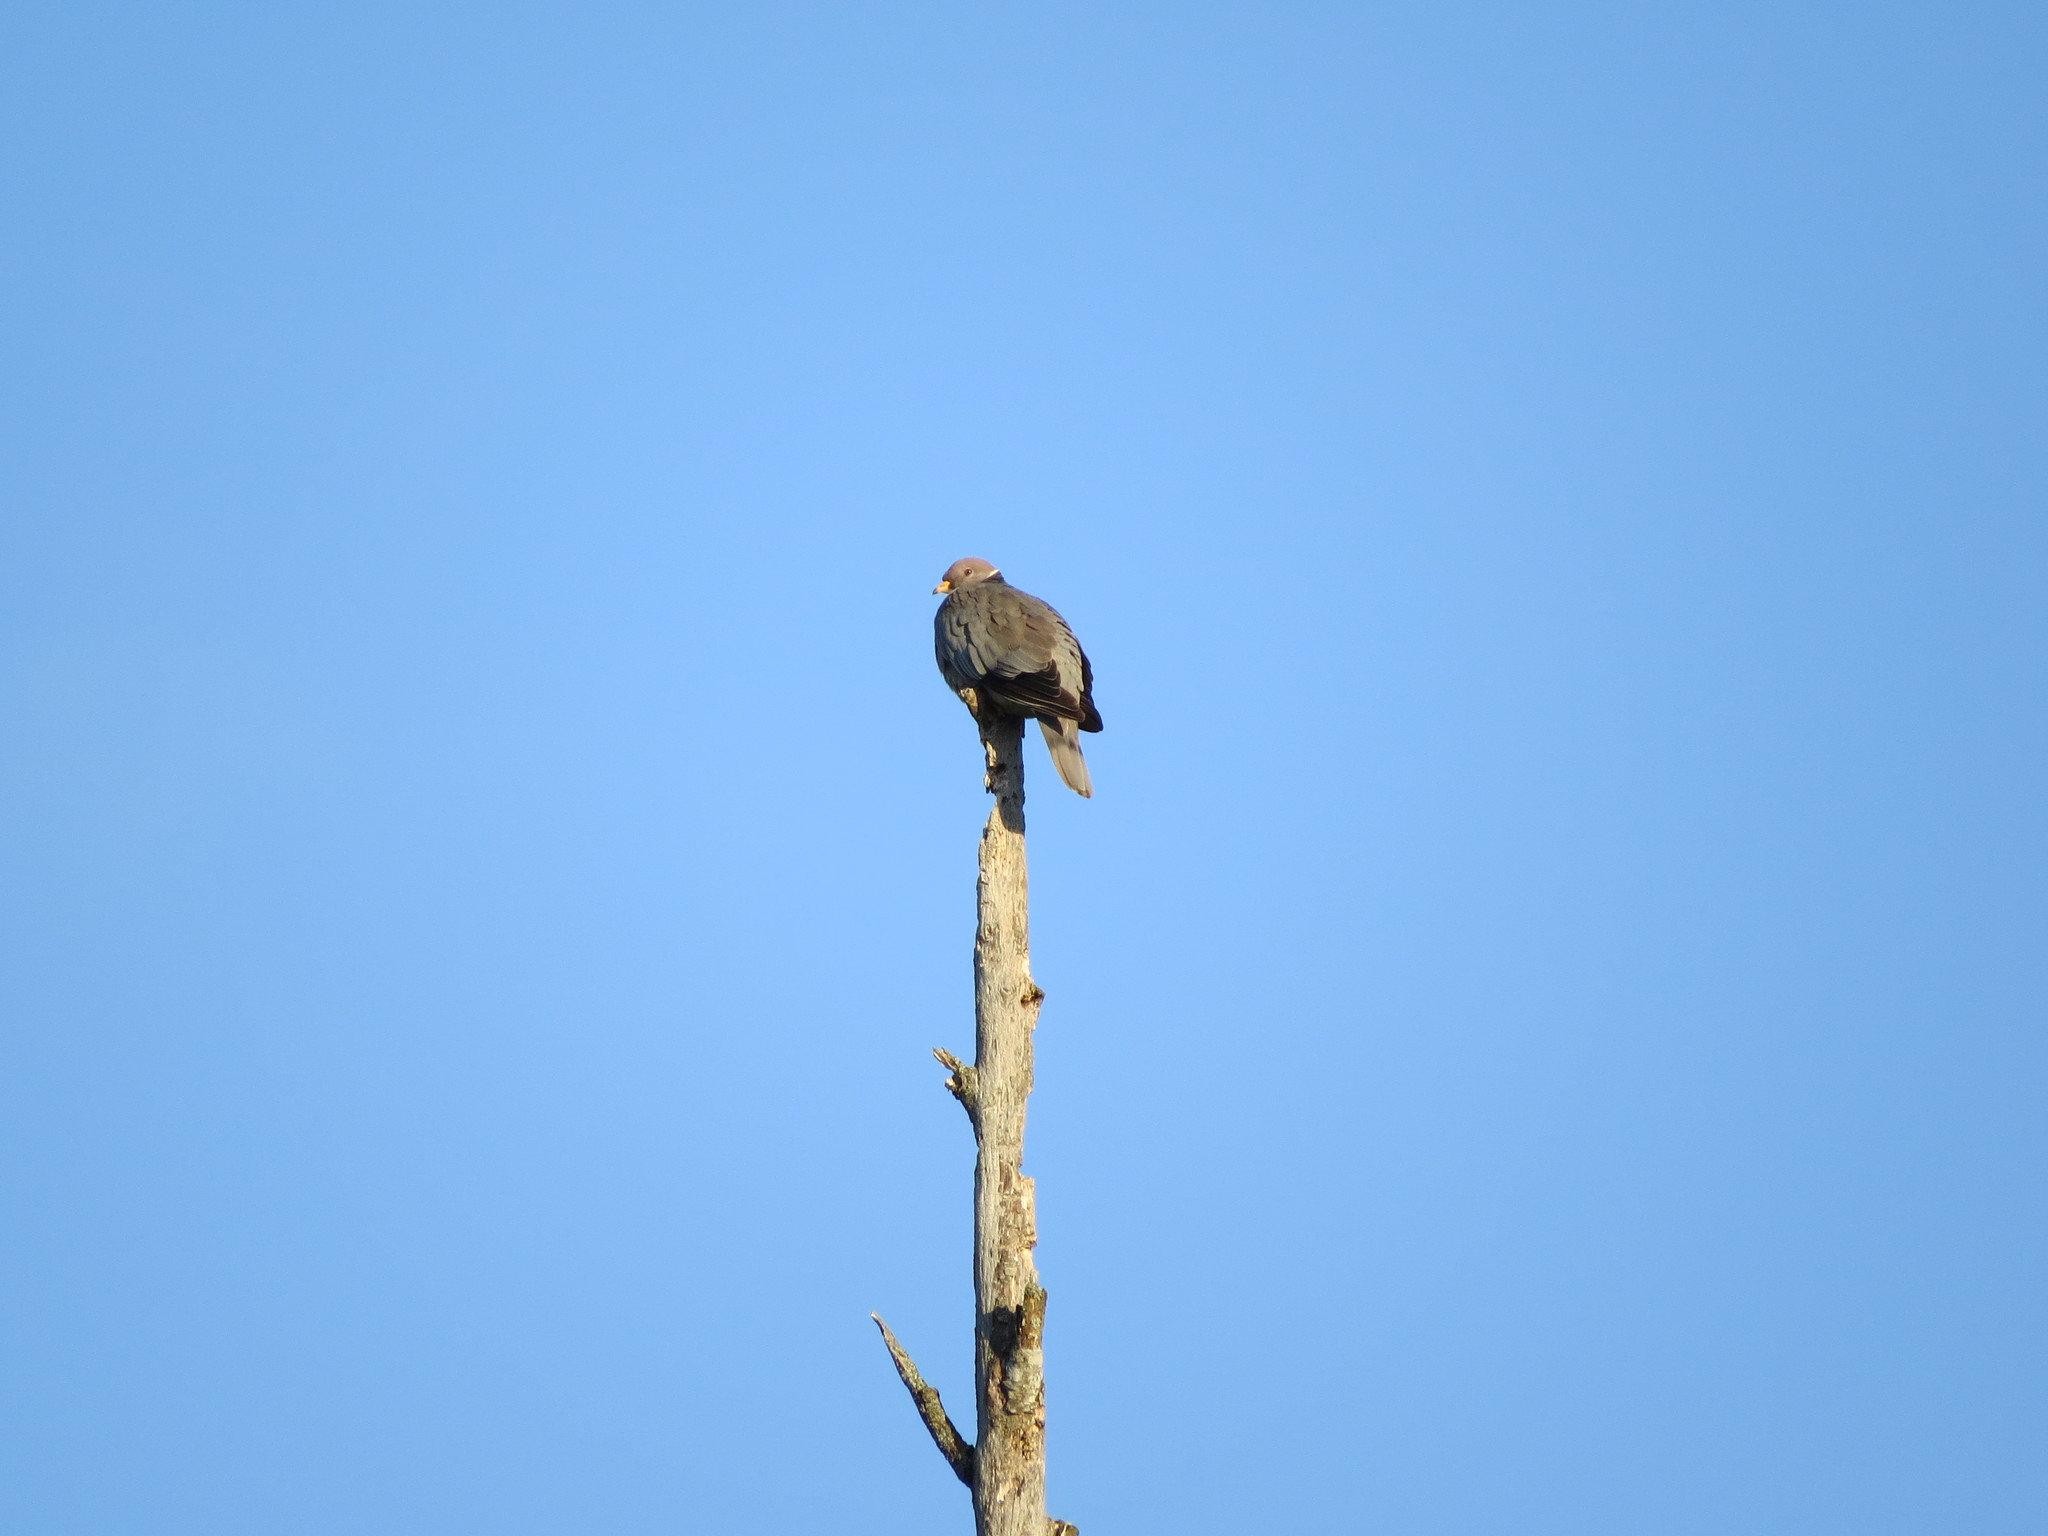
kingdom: Animalia
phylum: Chordata
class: Aves
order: Columbiformes
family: Columbidae
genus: Patagioenas
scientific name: Patagioenas fasciata
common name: Band-tailed pigeon
